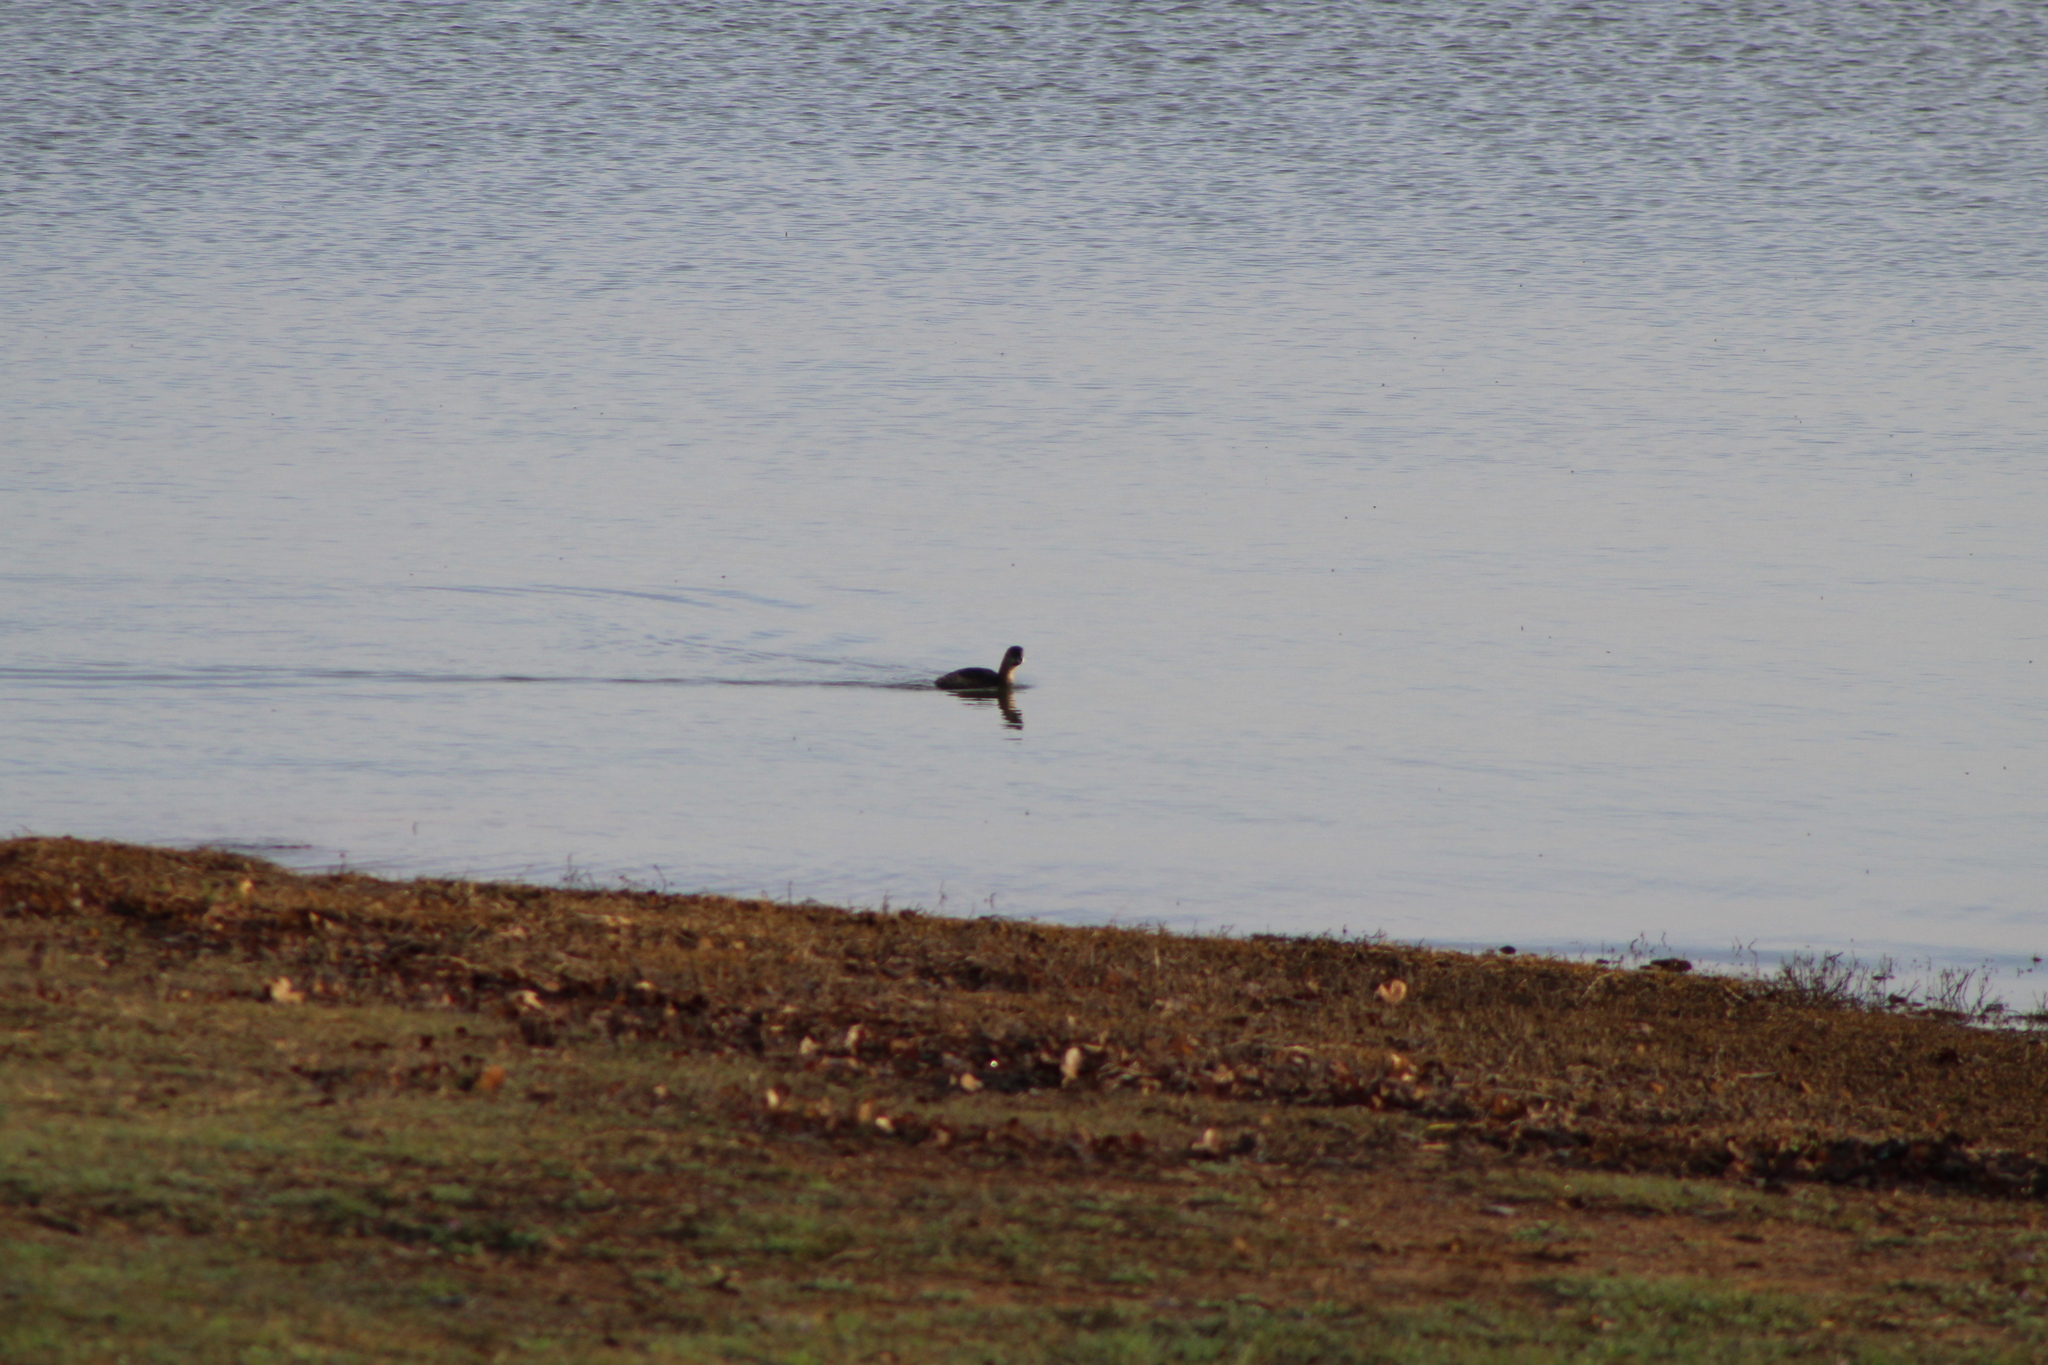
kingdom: Animalia
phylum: Chordata
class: Aves
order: Podicipediformes
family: Podicipedidae
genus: Podilymbus
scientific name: Podilymbus podiceps
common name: Pied-billed grebe
